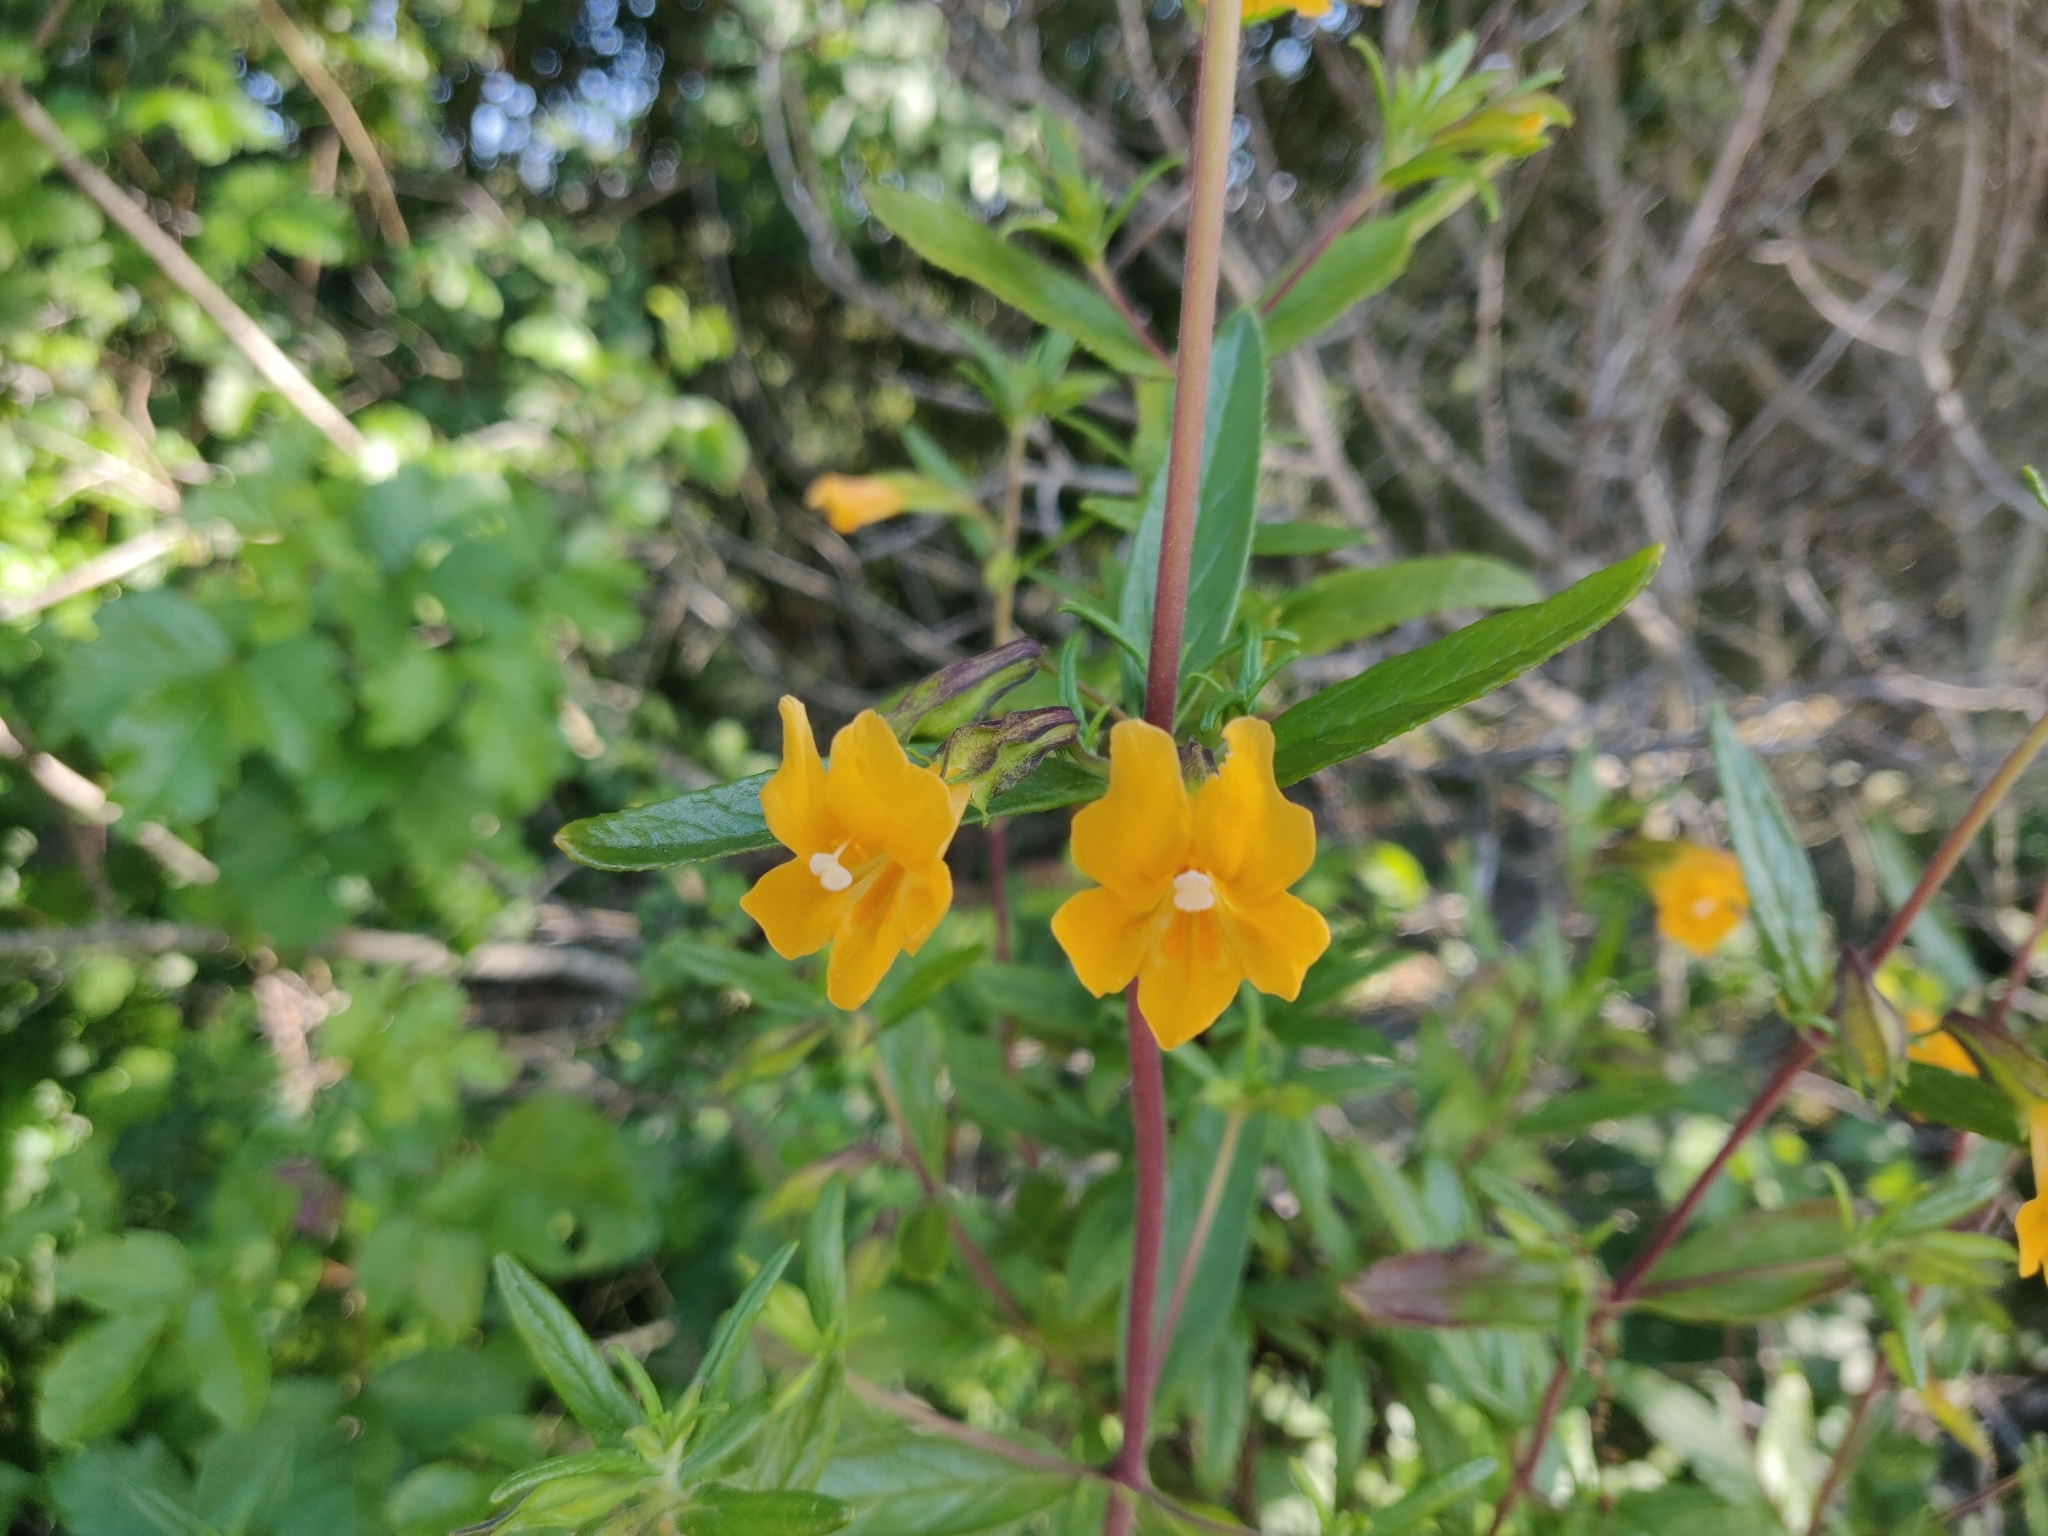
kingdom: Plantae
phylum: Tracheophyta
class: Magnoliopsida
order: Lamiales
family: Phrymaceae
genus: Diplacus
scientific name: Diplacus aurantiacus
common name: Bush monkey-flower
